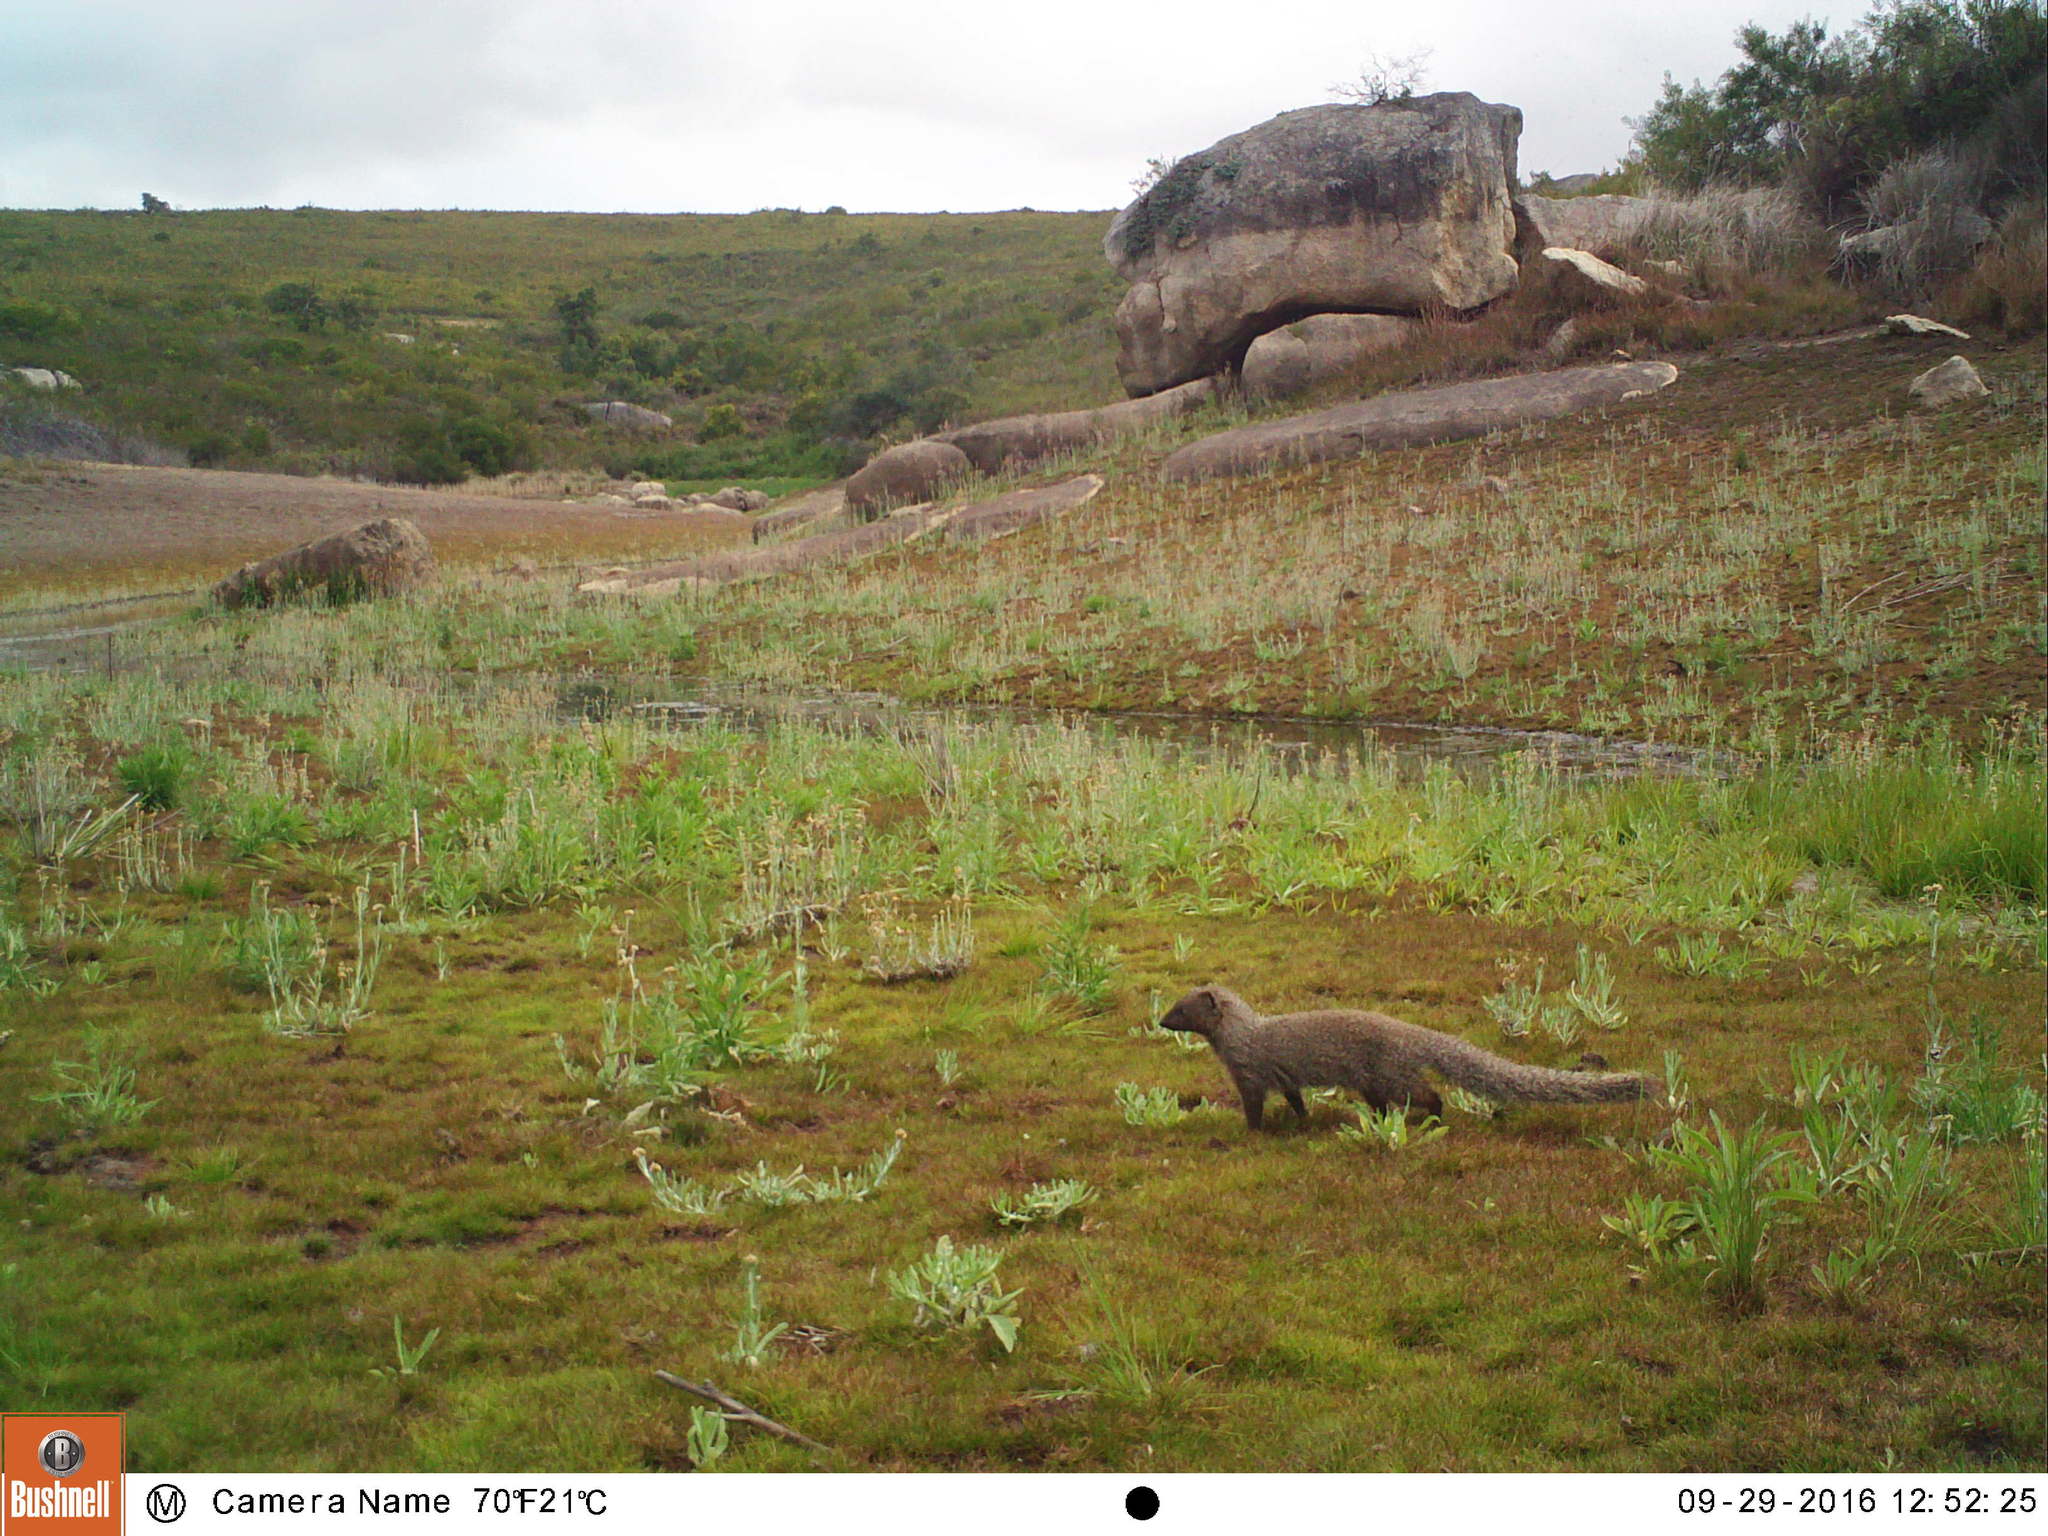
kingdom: Animalia
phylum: Chordata
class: Mammalia
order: Carnivora
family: Herpestidae
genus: Galerella
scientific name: Galerella pulverulenta
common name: Cape gray mongoose
